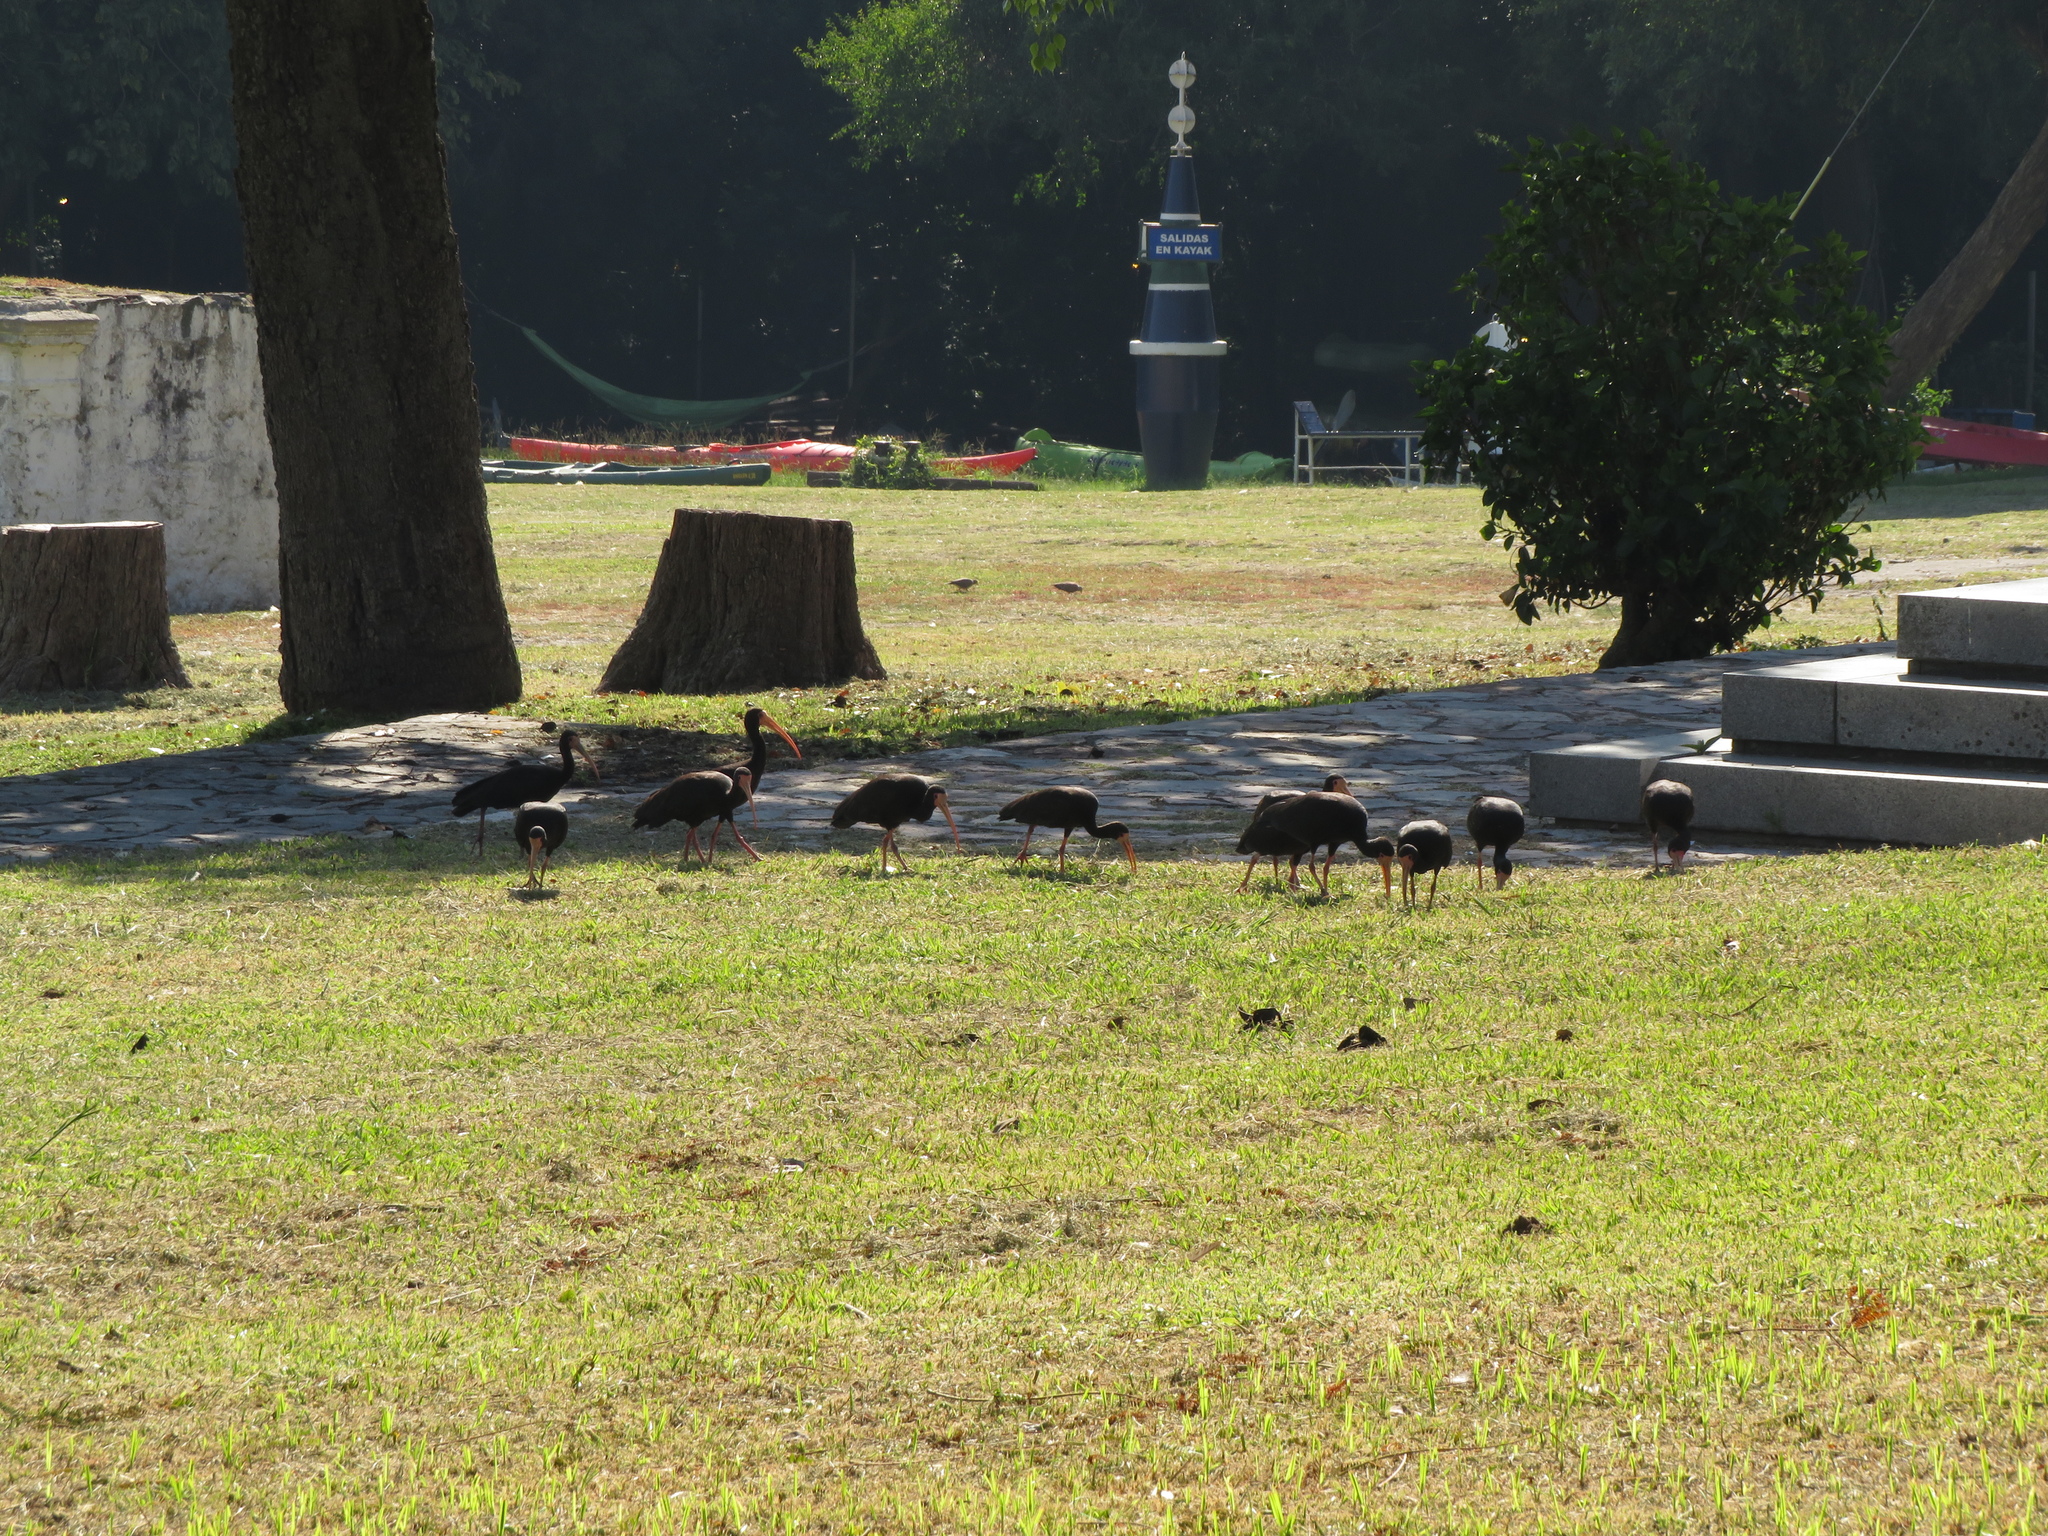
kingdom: Animalia
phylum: Chordata
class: Aves
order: Pelecaniformes
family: Threskiornithidae
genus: Phimosus
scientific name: Phimosus infuscatus
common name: Bare-faced ibis
